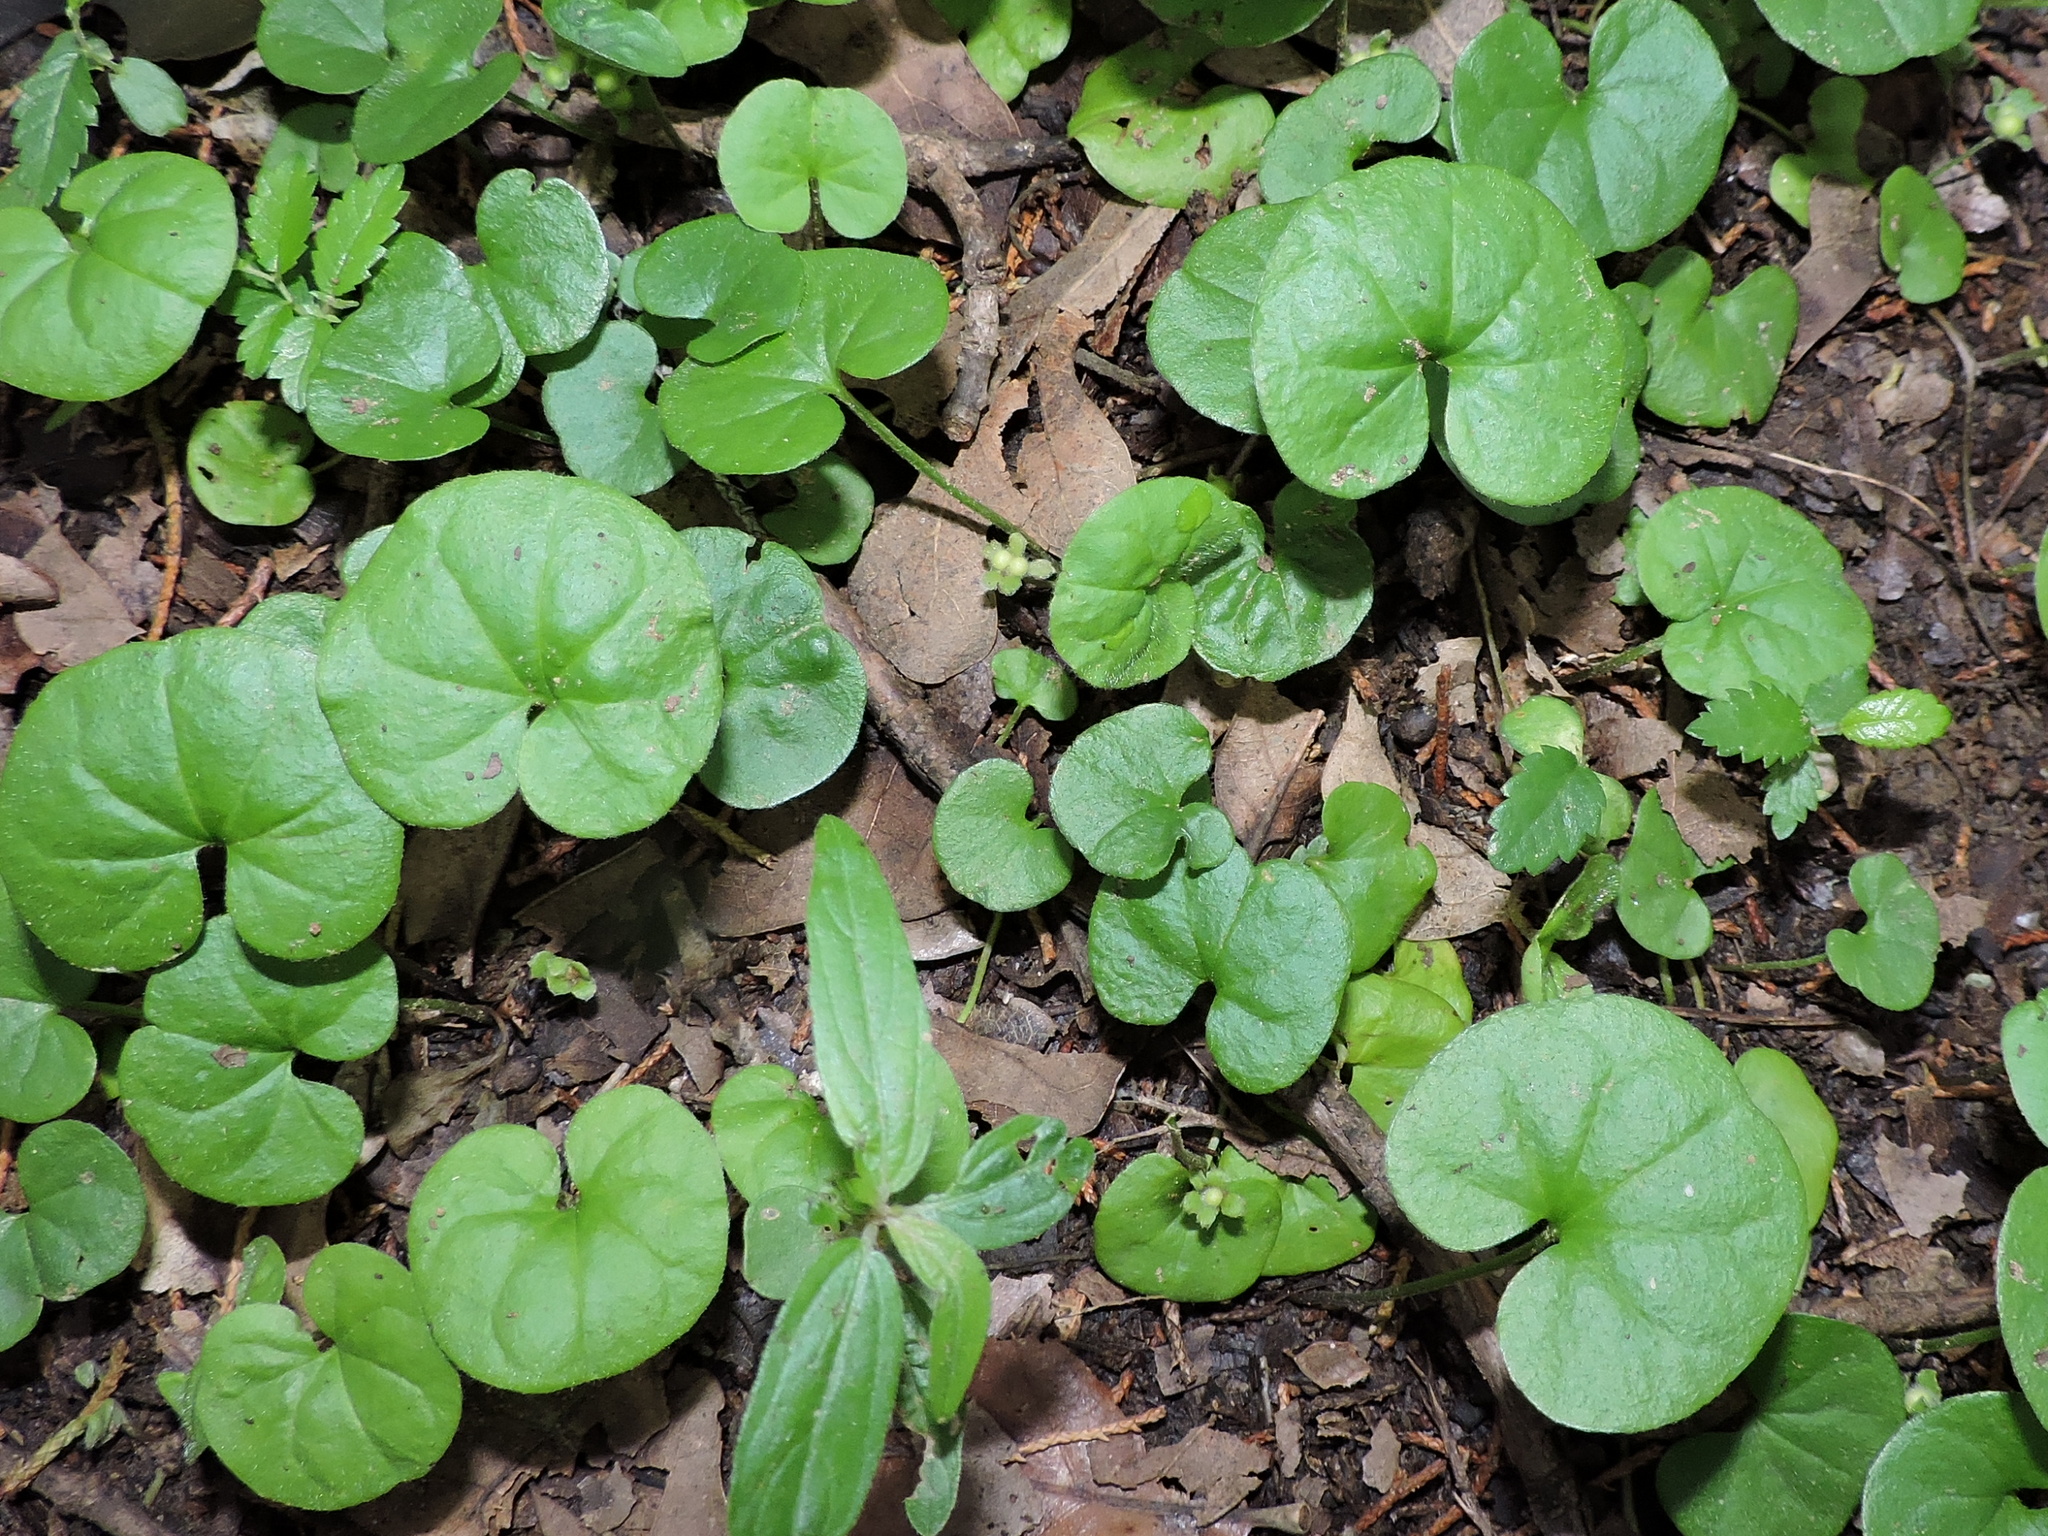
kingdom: Plantae
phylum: Tracheophyta
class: Magnoliopsida
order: Solanales
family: Convolvulaceae
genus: Dichondra
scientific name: Dichondra carolinensis
